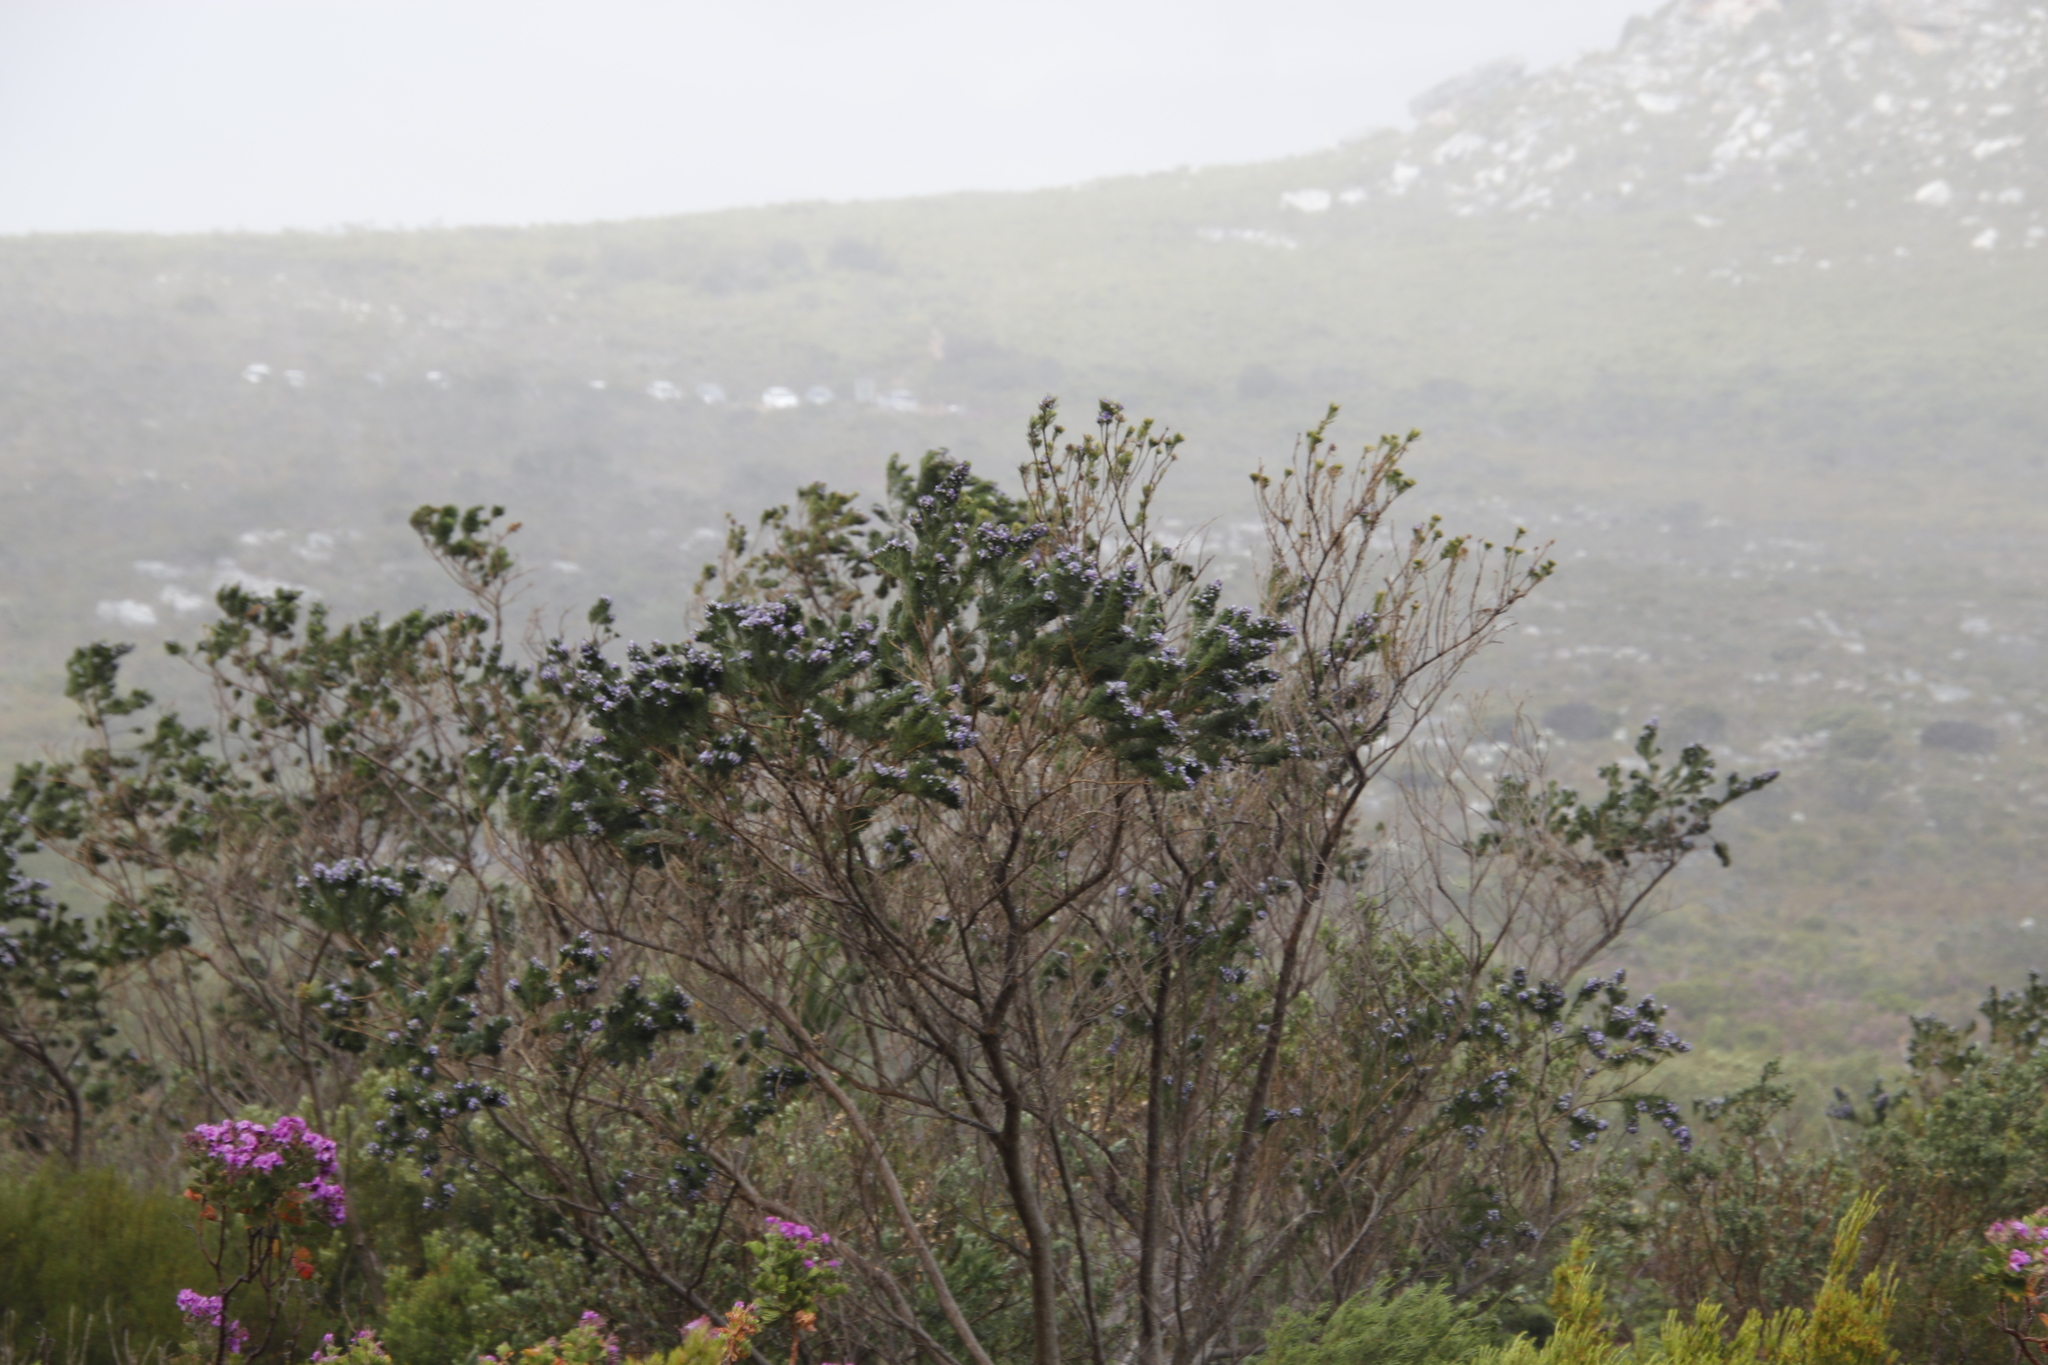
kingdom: Plantae
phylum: Tracheophyta
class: Magnoliopsida
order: Fabales
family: Fabaceae
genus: Psoralea
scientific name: Psoralea pinnata
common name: African scurfpea
